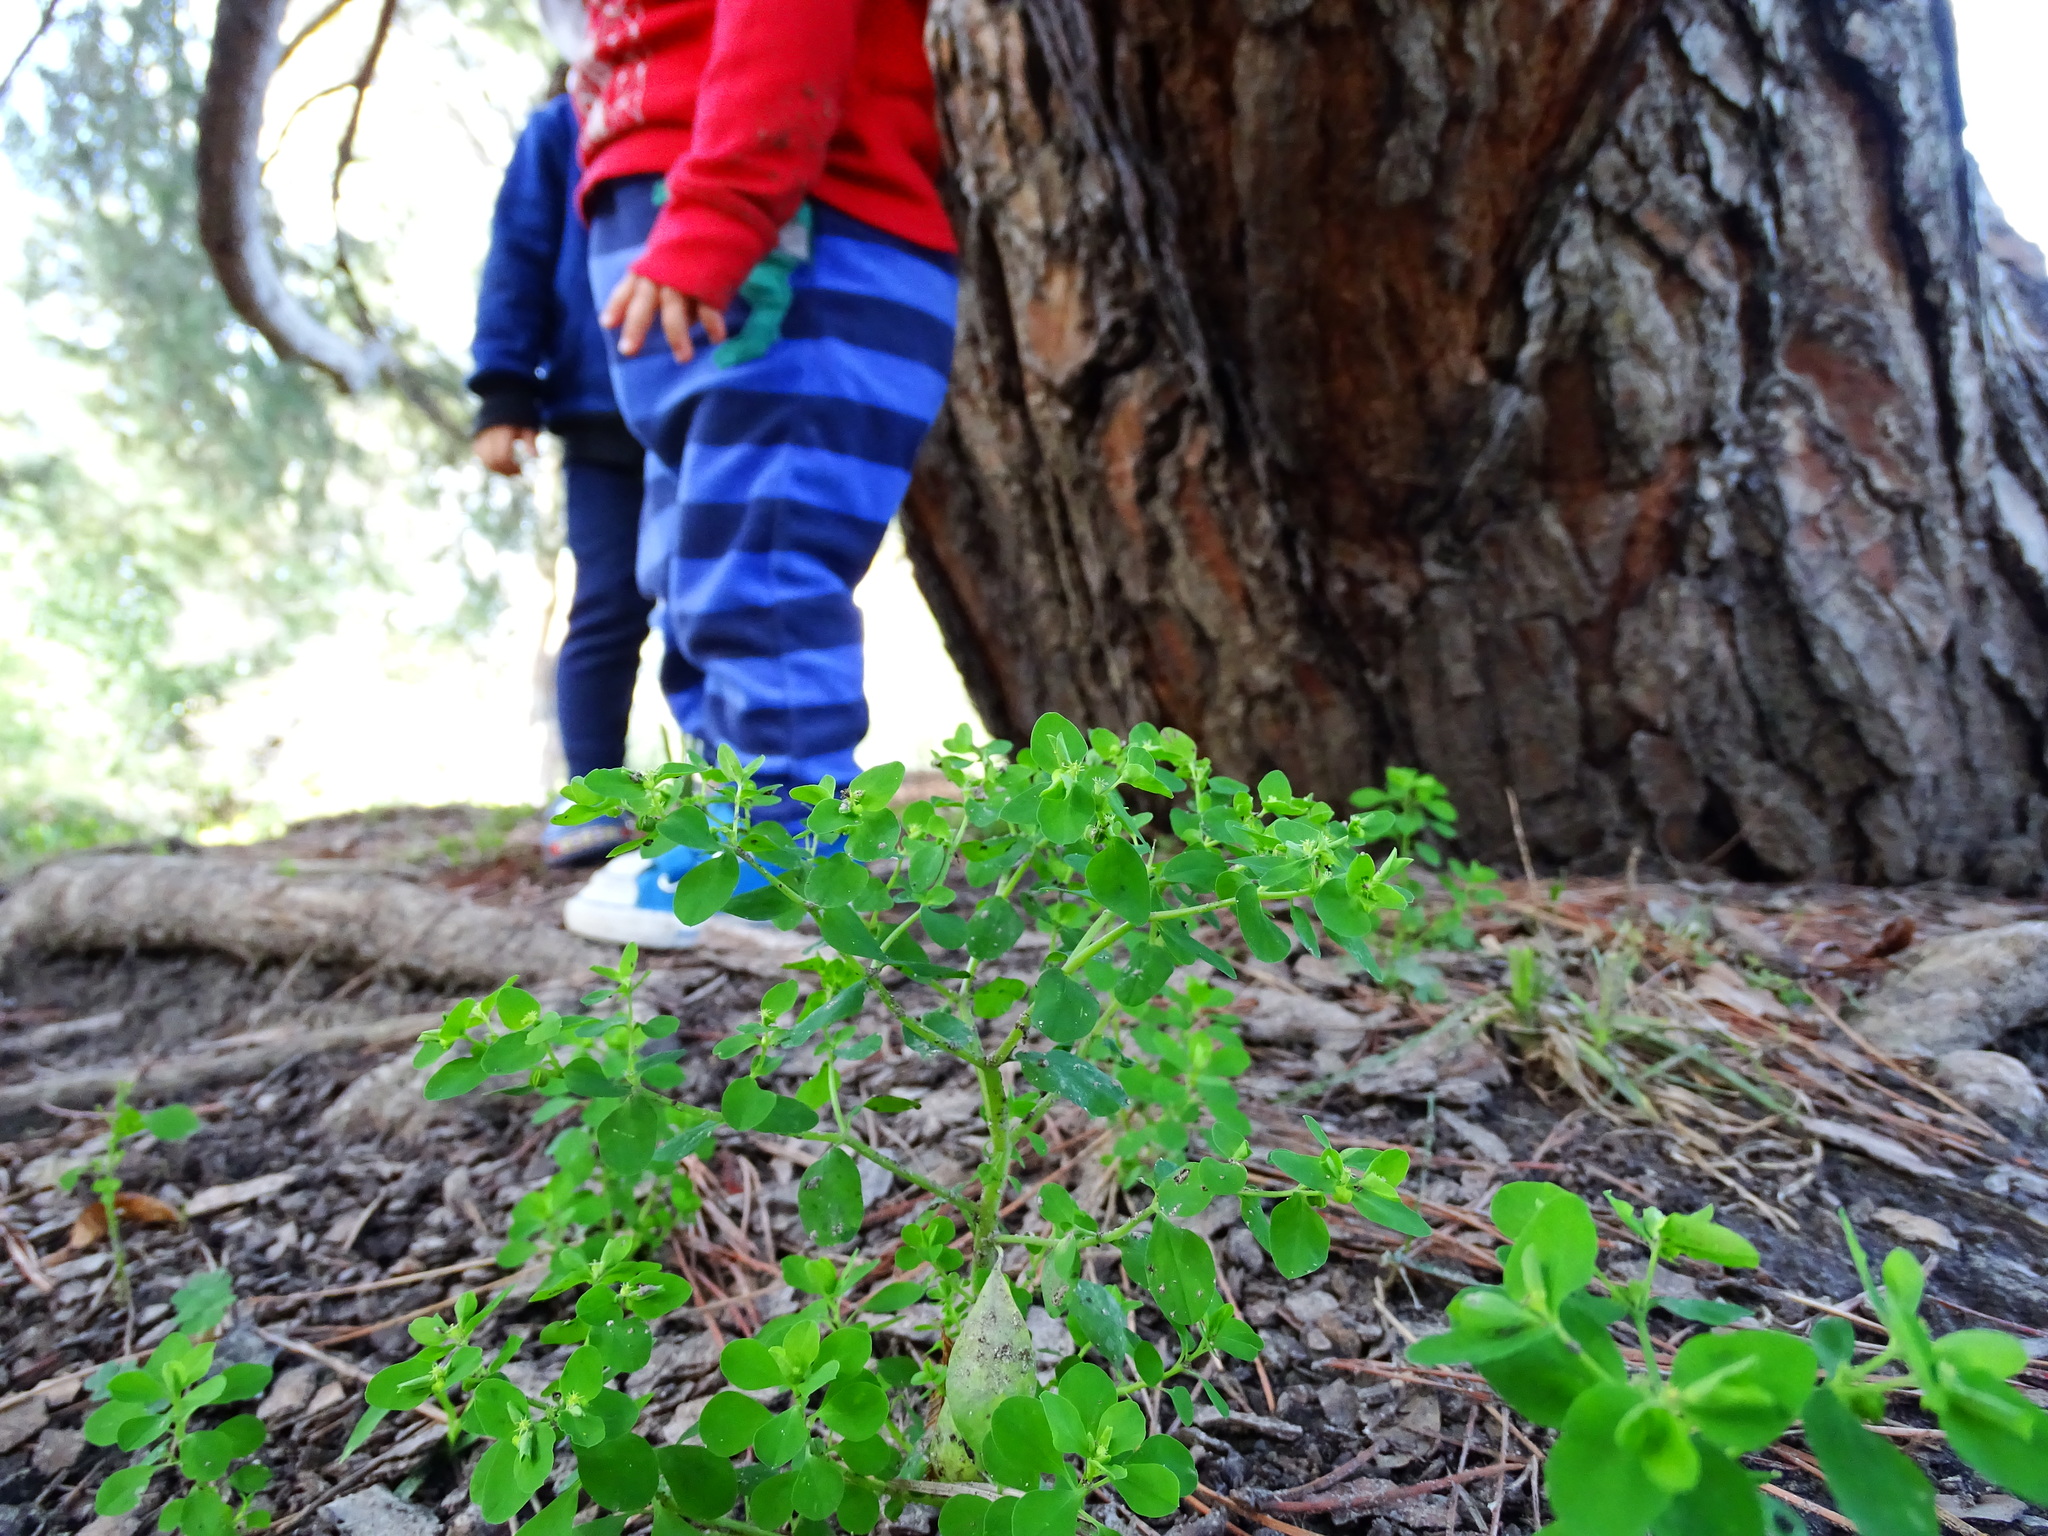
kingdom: Plantae
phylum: Tracheophyta
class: Magnoliopsida
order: Malpighiales
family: Euphorbiaceae
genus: Euphorbia
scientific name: Euphorbia peplus
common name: Petty spurge
